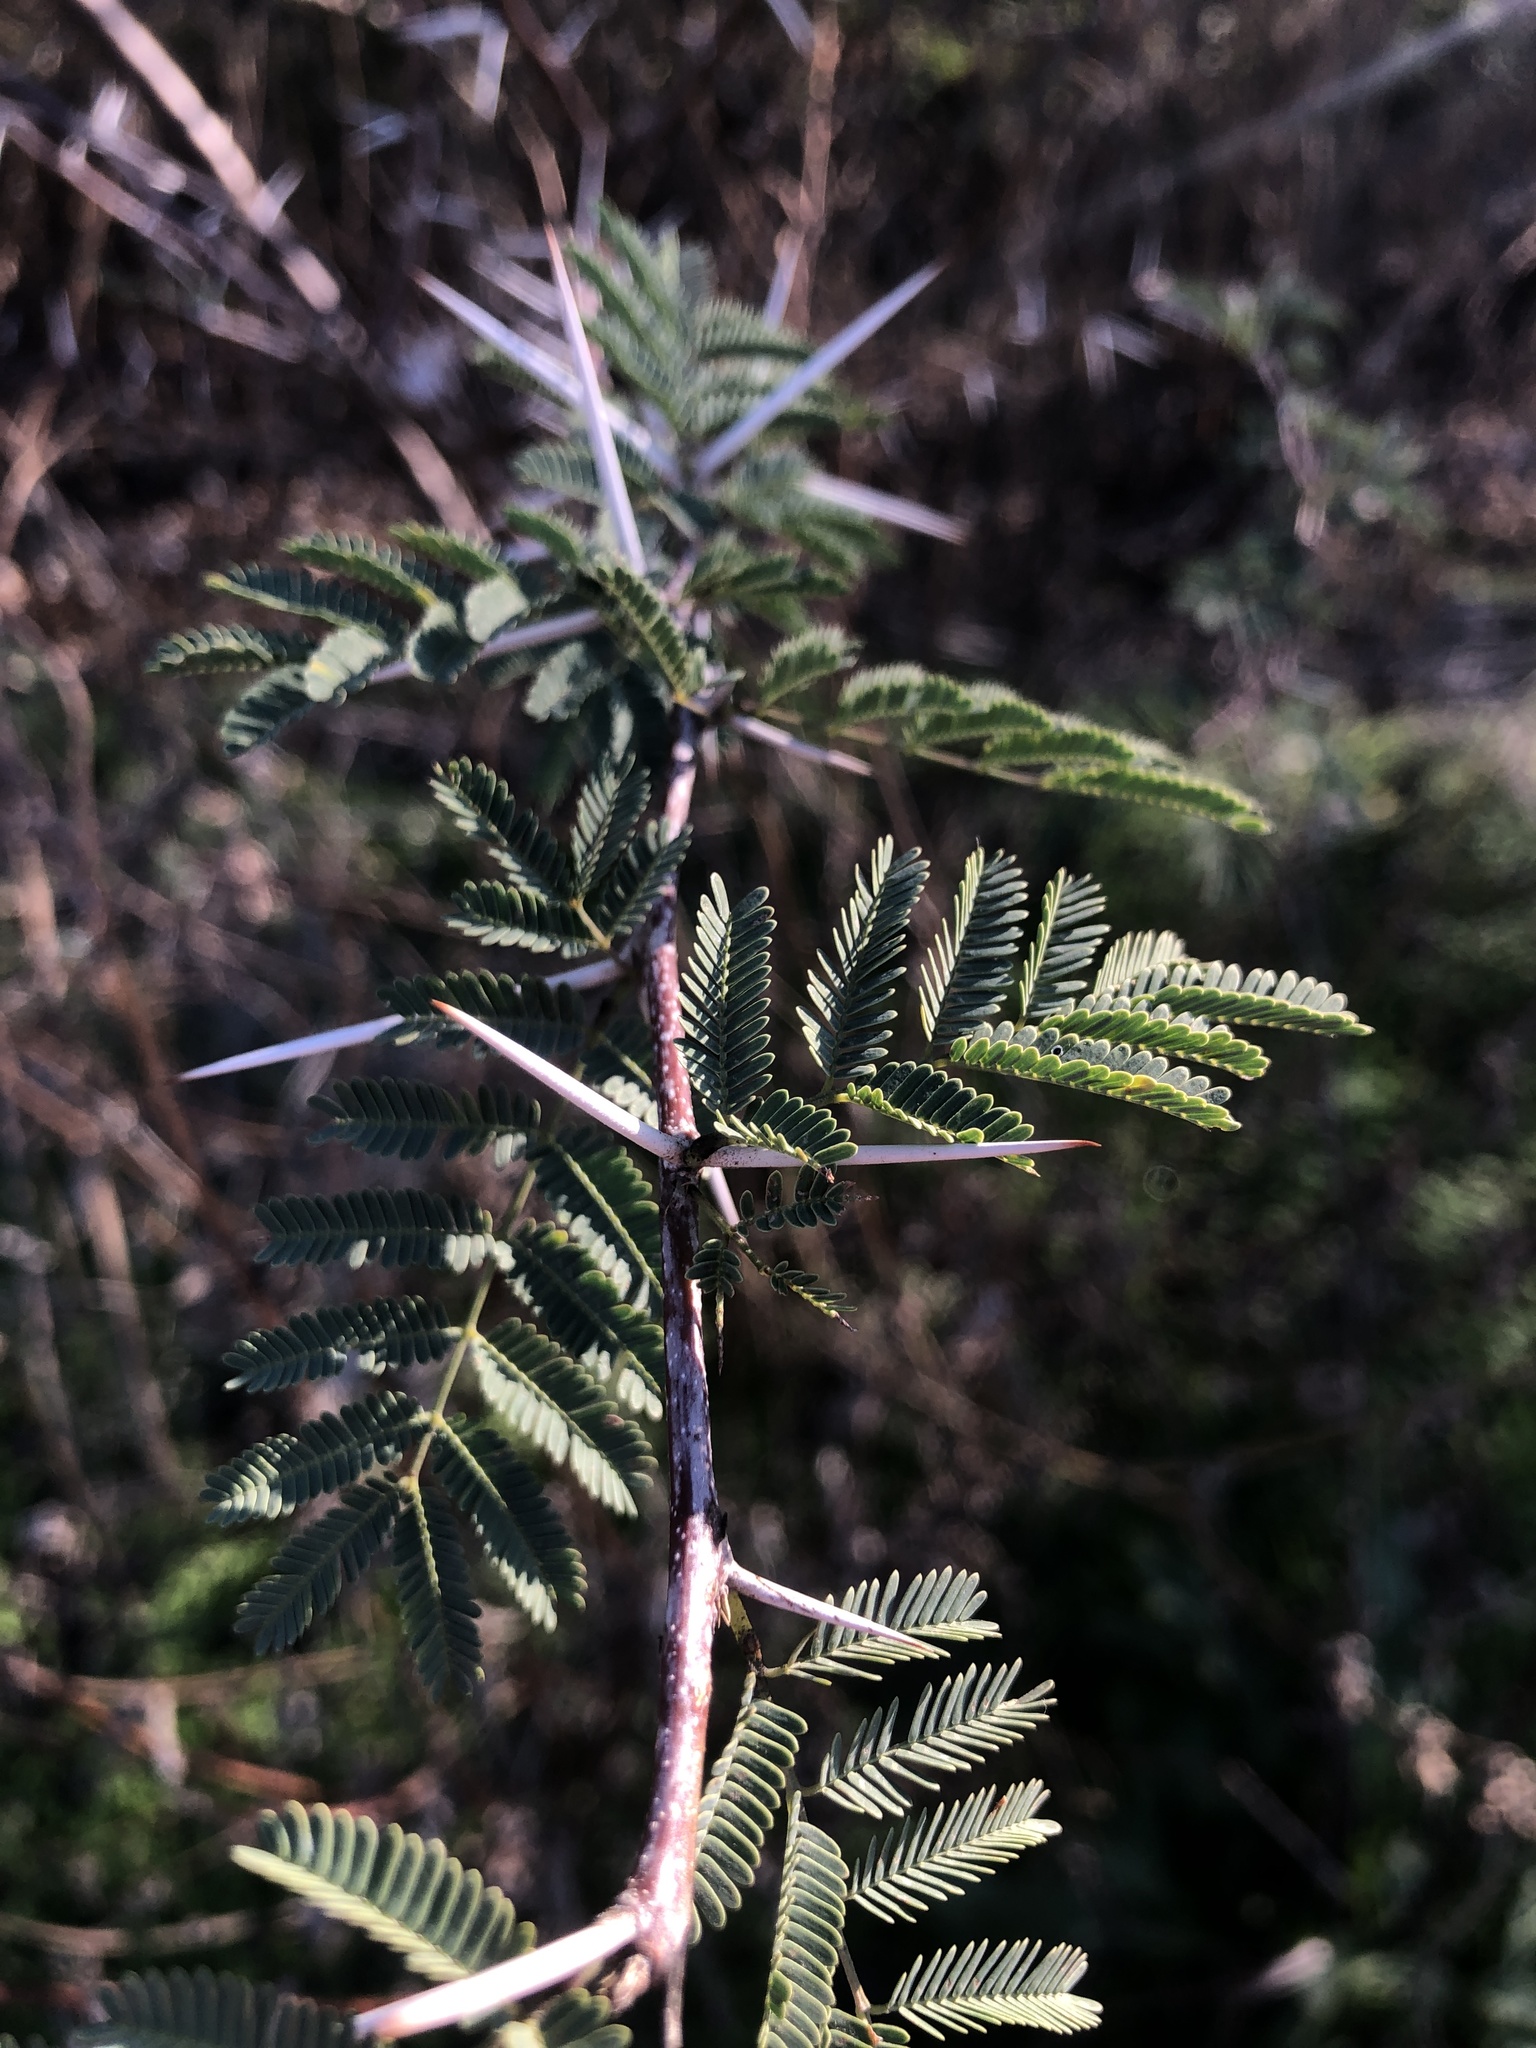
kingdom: Plantae
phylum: Tracheophyta
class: Magnoliopsida
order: Fabales
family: Fabaceae
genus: Vachellia
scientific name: Vachellia farnesiana
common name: Sweet acacia
